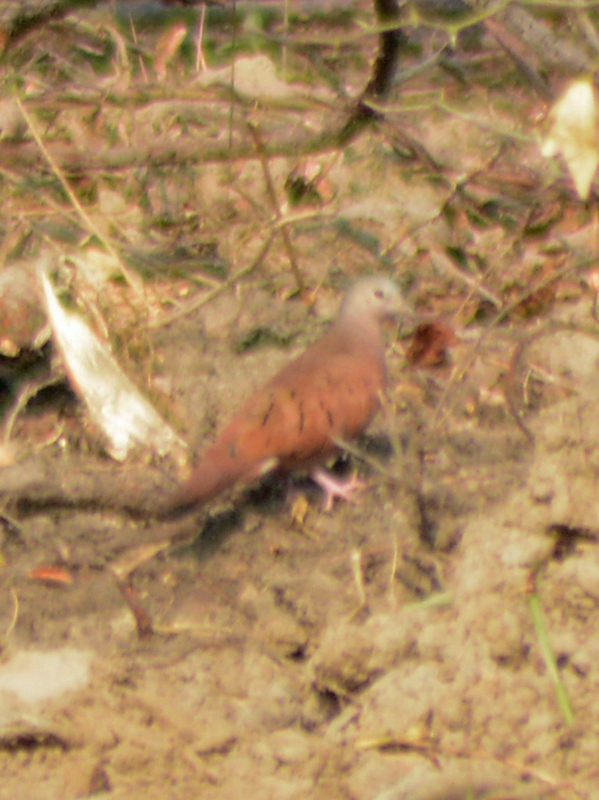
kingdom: Animalia
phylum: Chordata
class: Aves
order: Columbiformes
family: Columbidae
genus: Columbina
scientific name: Columbina talpacoti
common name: Ruddy ground dove
